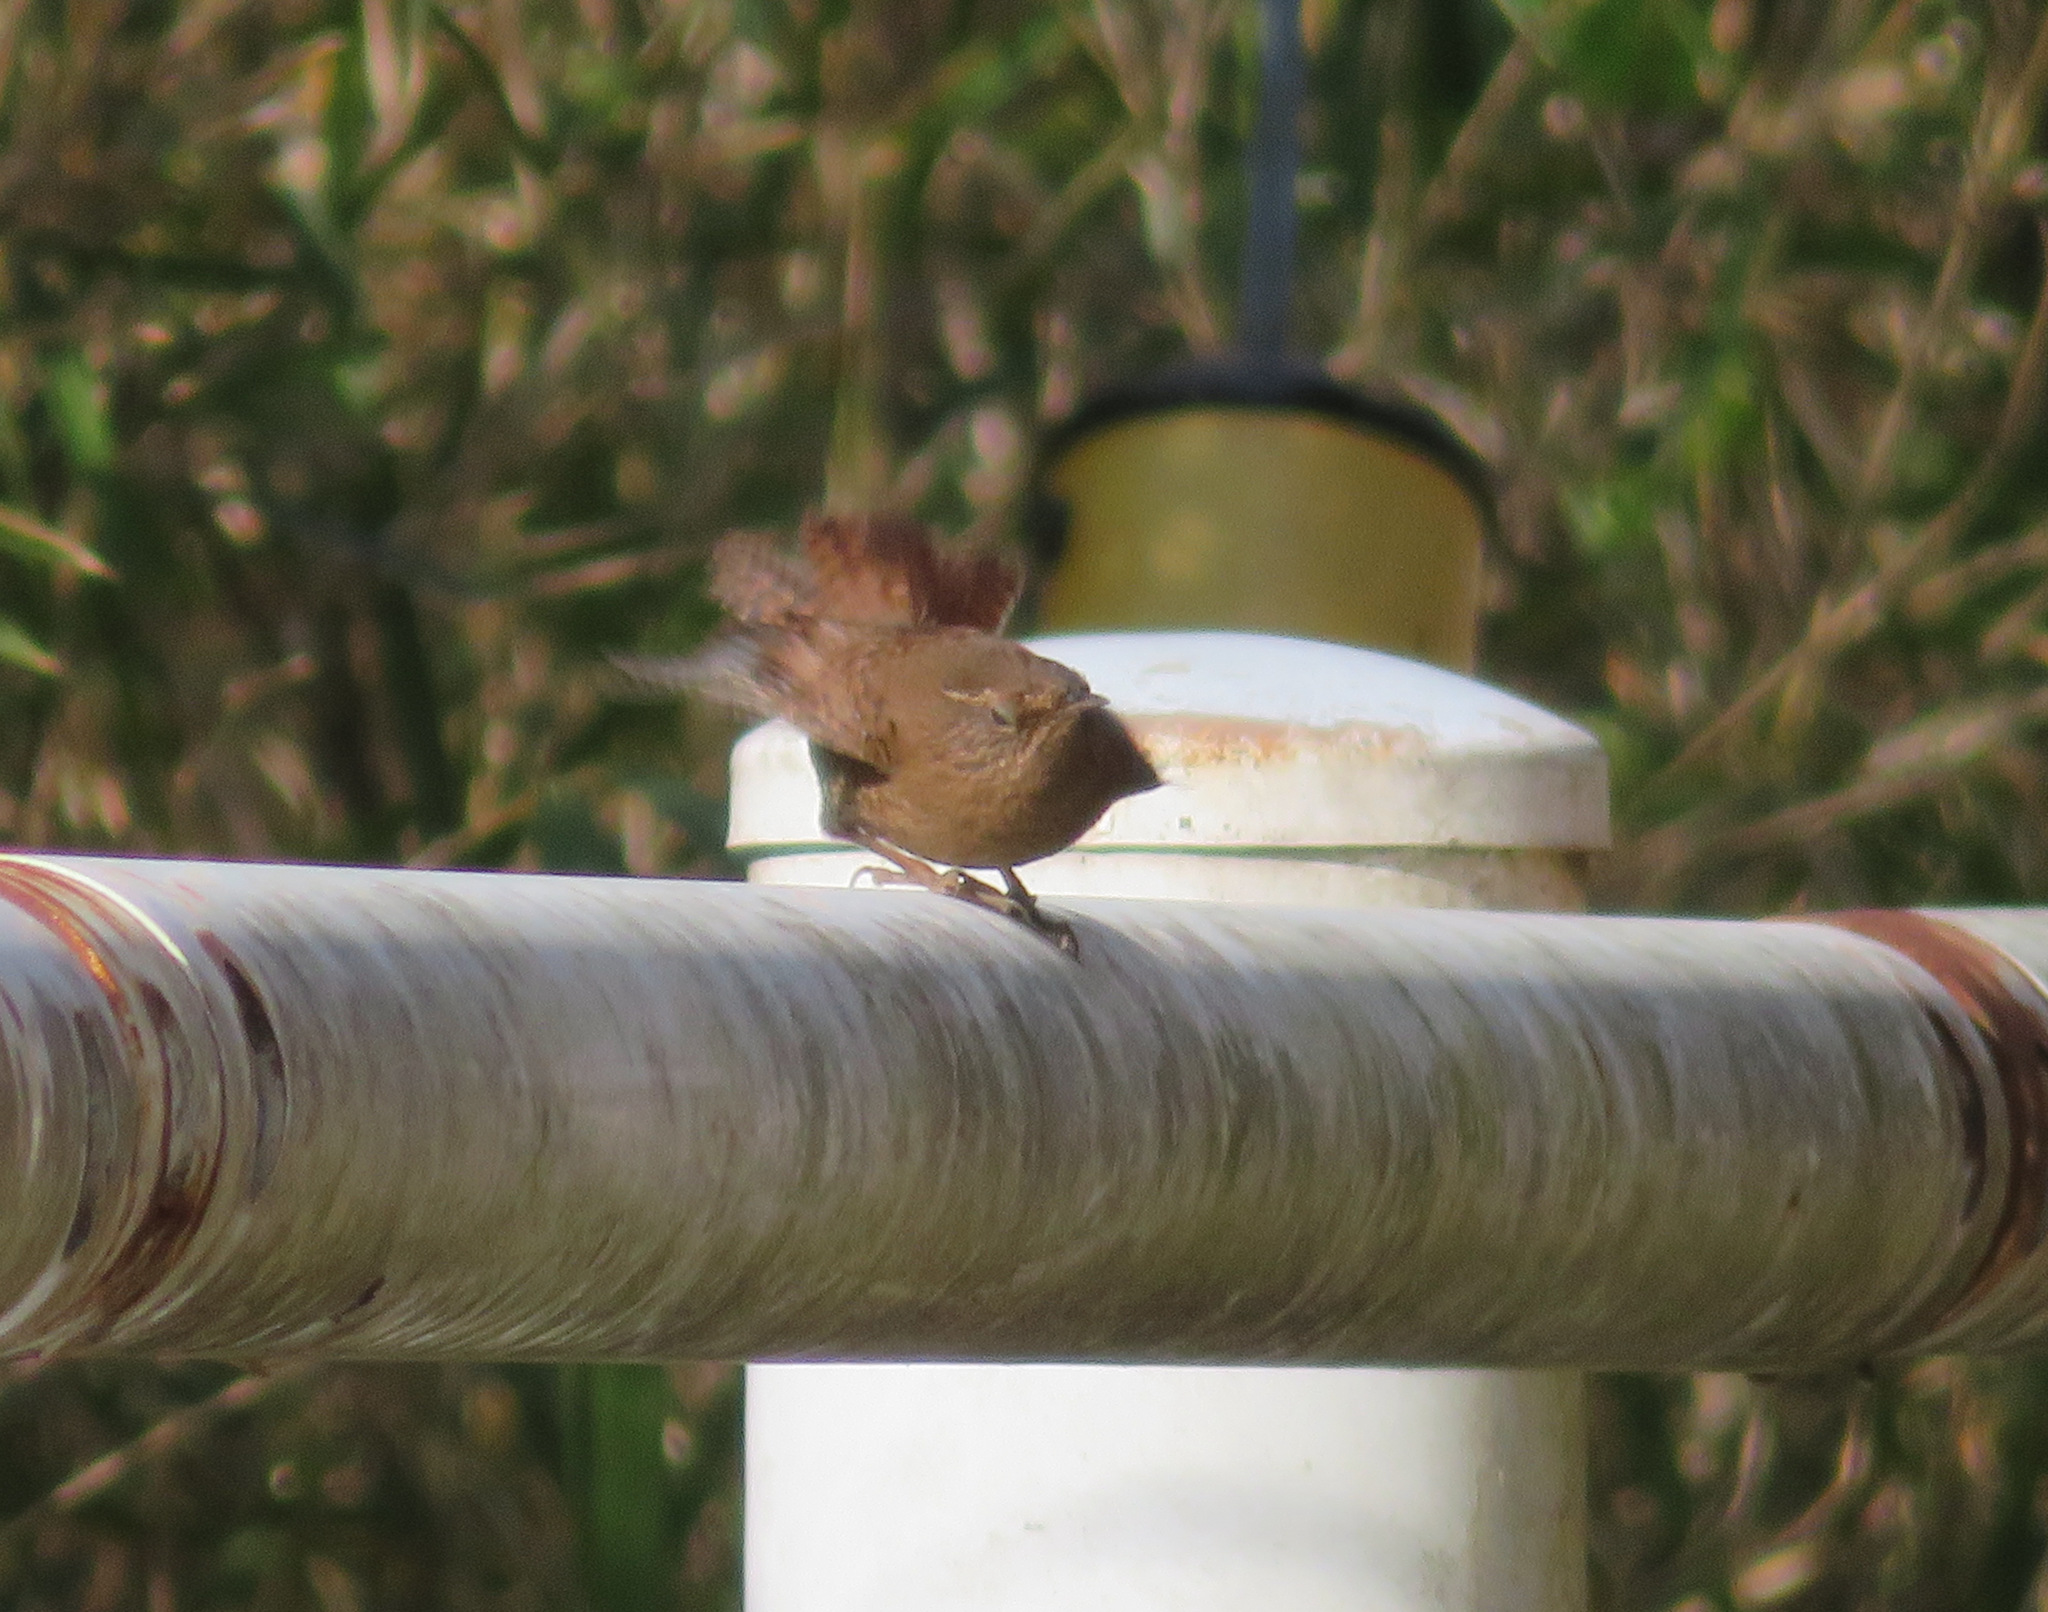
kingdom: Animalia
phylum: Chordata
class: Aves
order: Passeriformes
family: Troglodytidae
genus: Troglodytes
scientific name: Troglodytes troglodytes
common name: Eurasian wren
